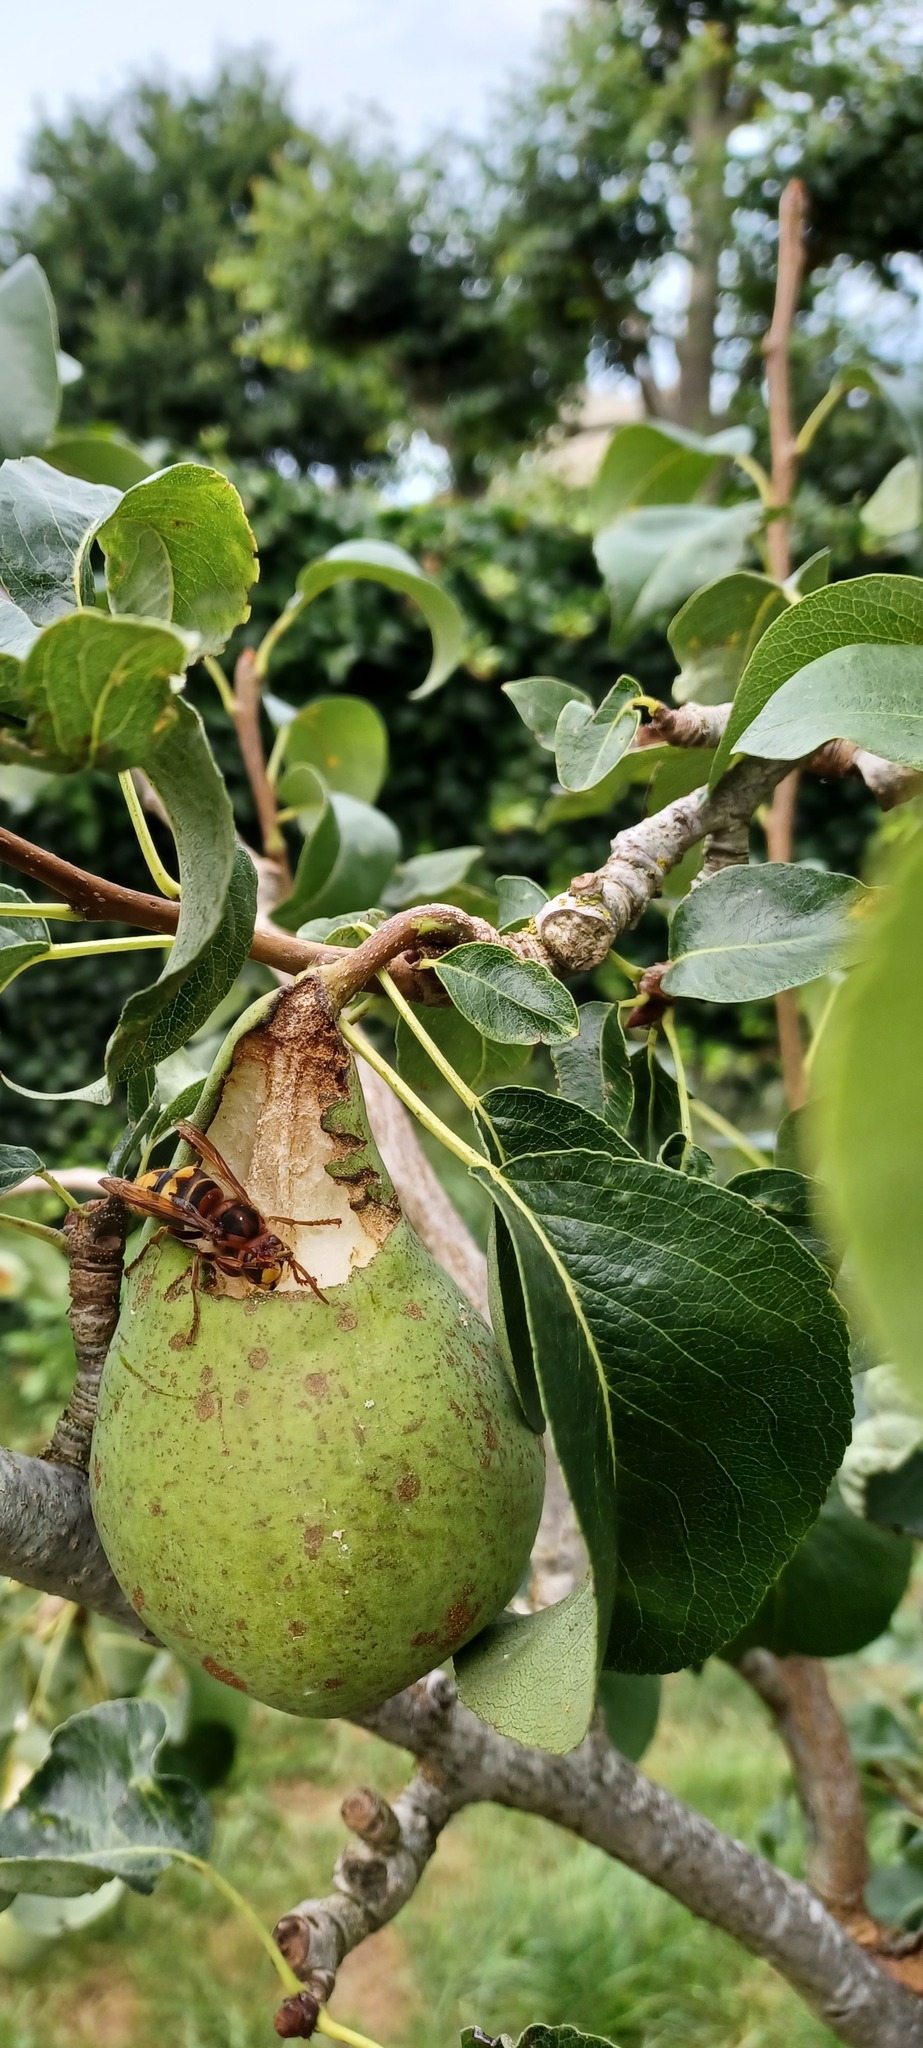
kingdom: Animalia
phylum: Arthropoda
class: Insecta
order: Hymenoptera
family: Vespidae
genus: Vespa
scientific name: Vespa crabro
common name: Hornet
